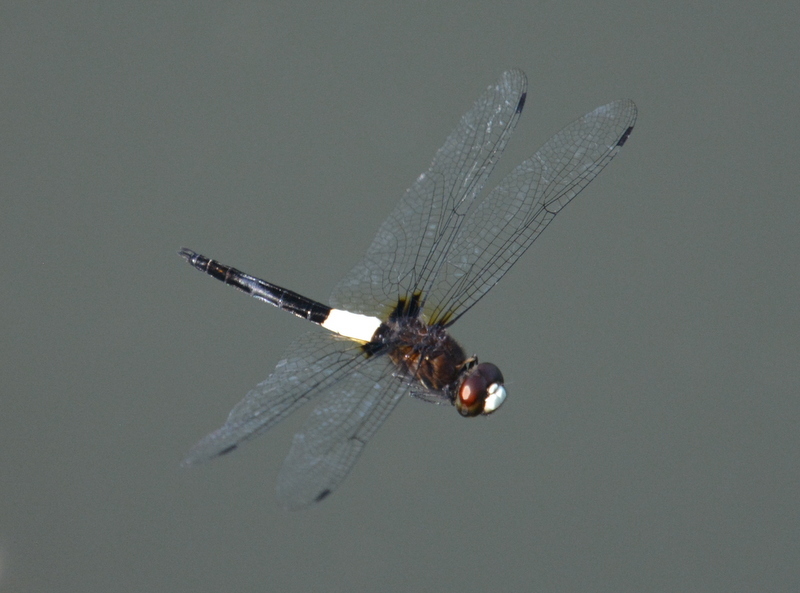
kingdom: Animalia
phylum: Arthropoda
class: Insecta
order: Odonata
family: Libellulidae
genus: Pseudothemis
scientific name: Pseudothemis jorina
